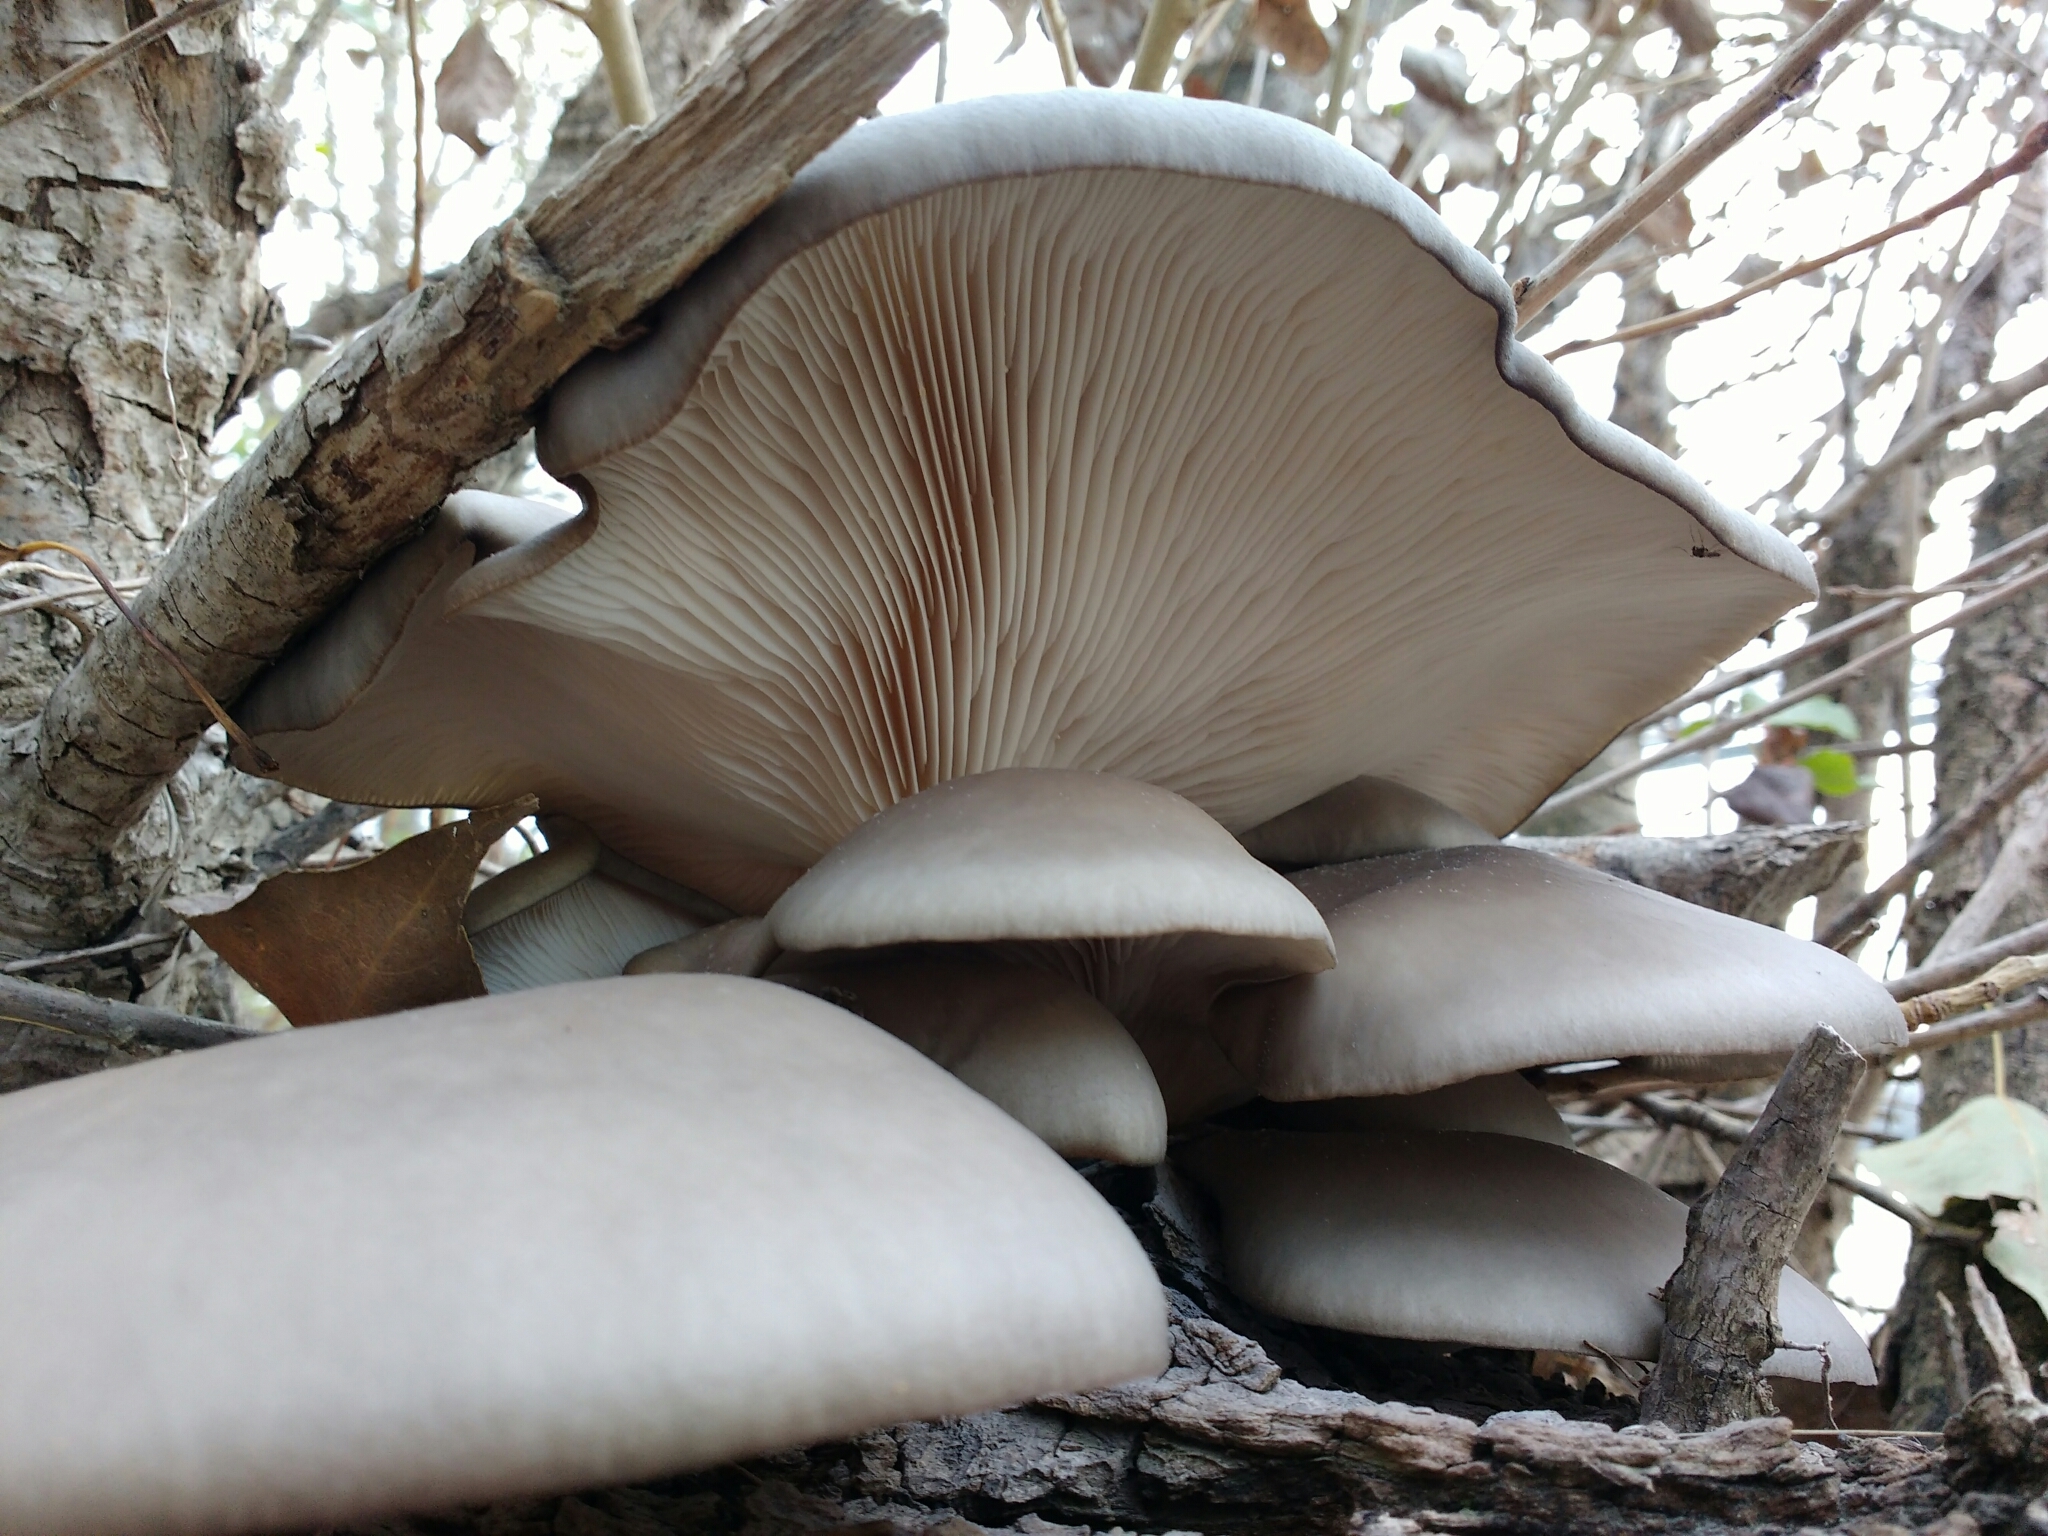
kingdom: Fungi
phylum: Basidiomycota
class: Agaricomycetes
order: Agaricales
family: Pleurotaceae
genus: Pleurotus
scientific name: Pleurotus ostreatus
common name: Oyster mushroom
